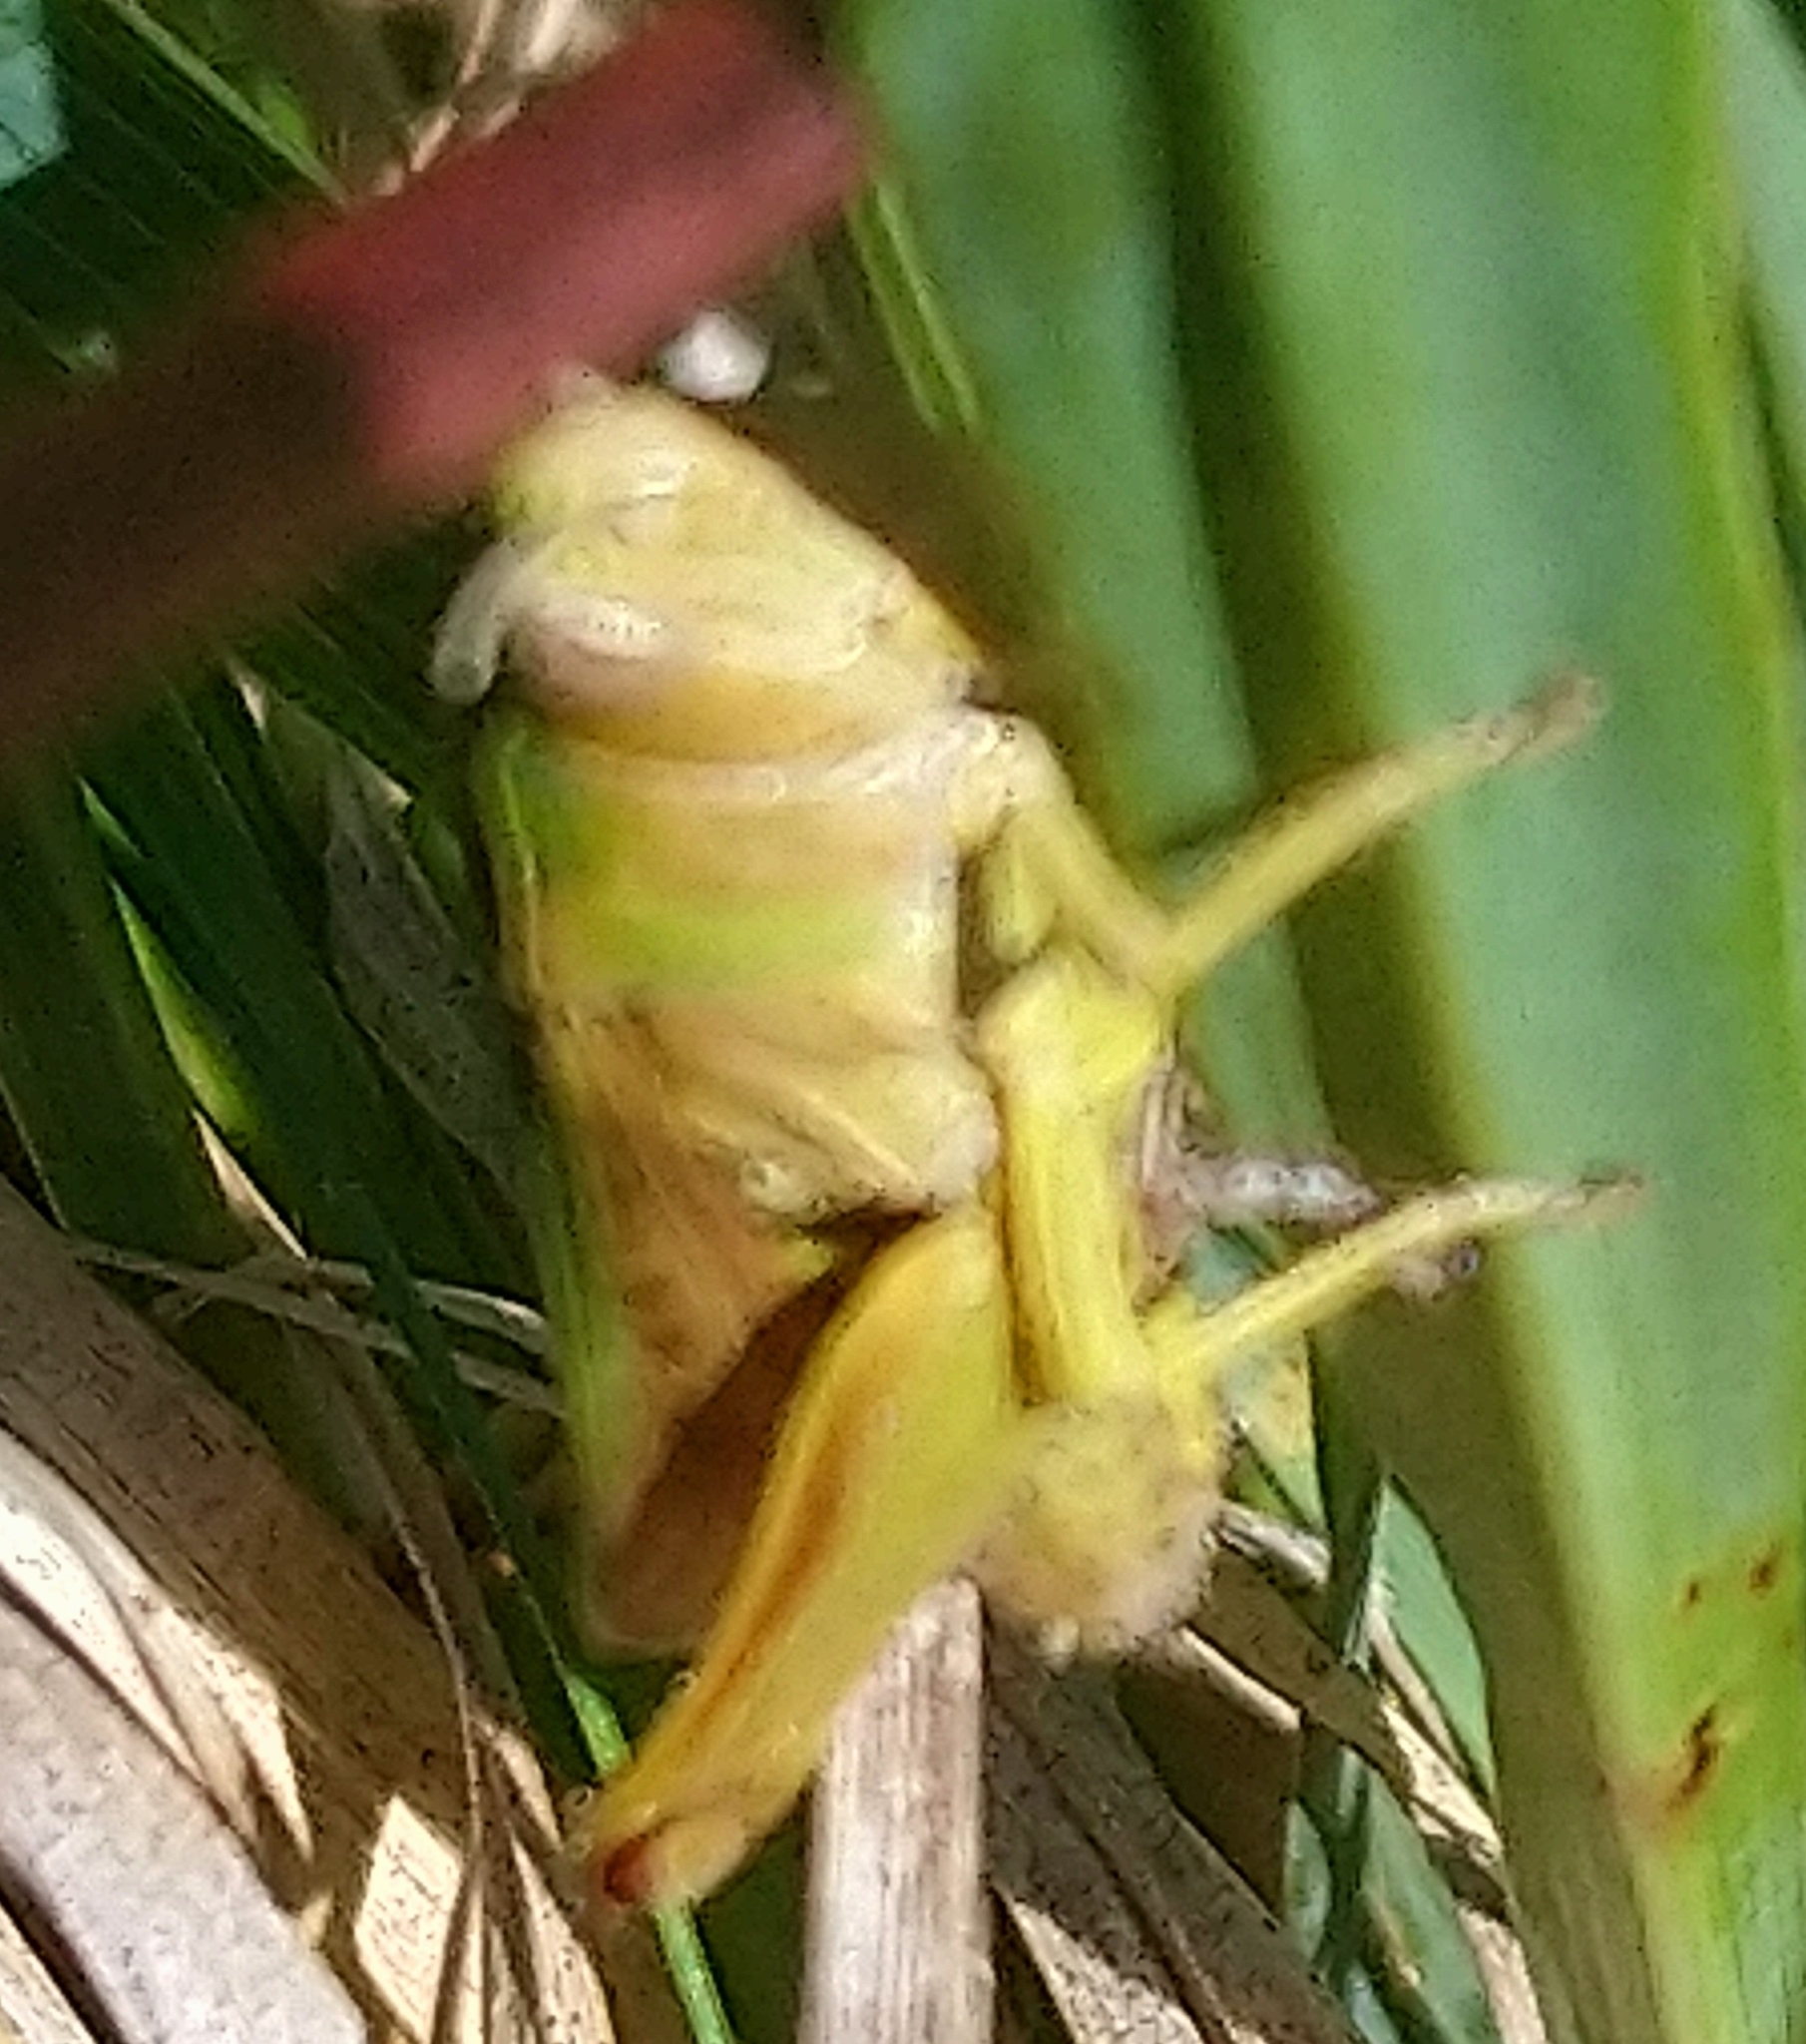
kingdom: Animalia
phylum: Arthropoda
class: Insecta
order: Orthoptera
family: Acrididae
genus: Omocestus
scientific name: Omocestus viridulus
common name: Common green grasshopper
